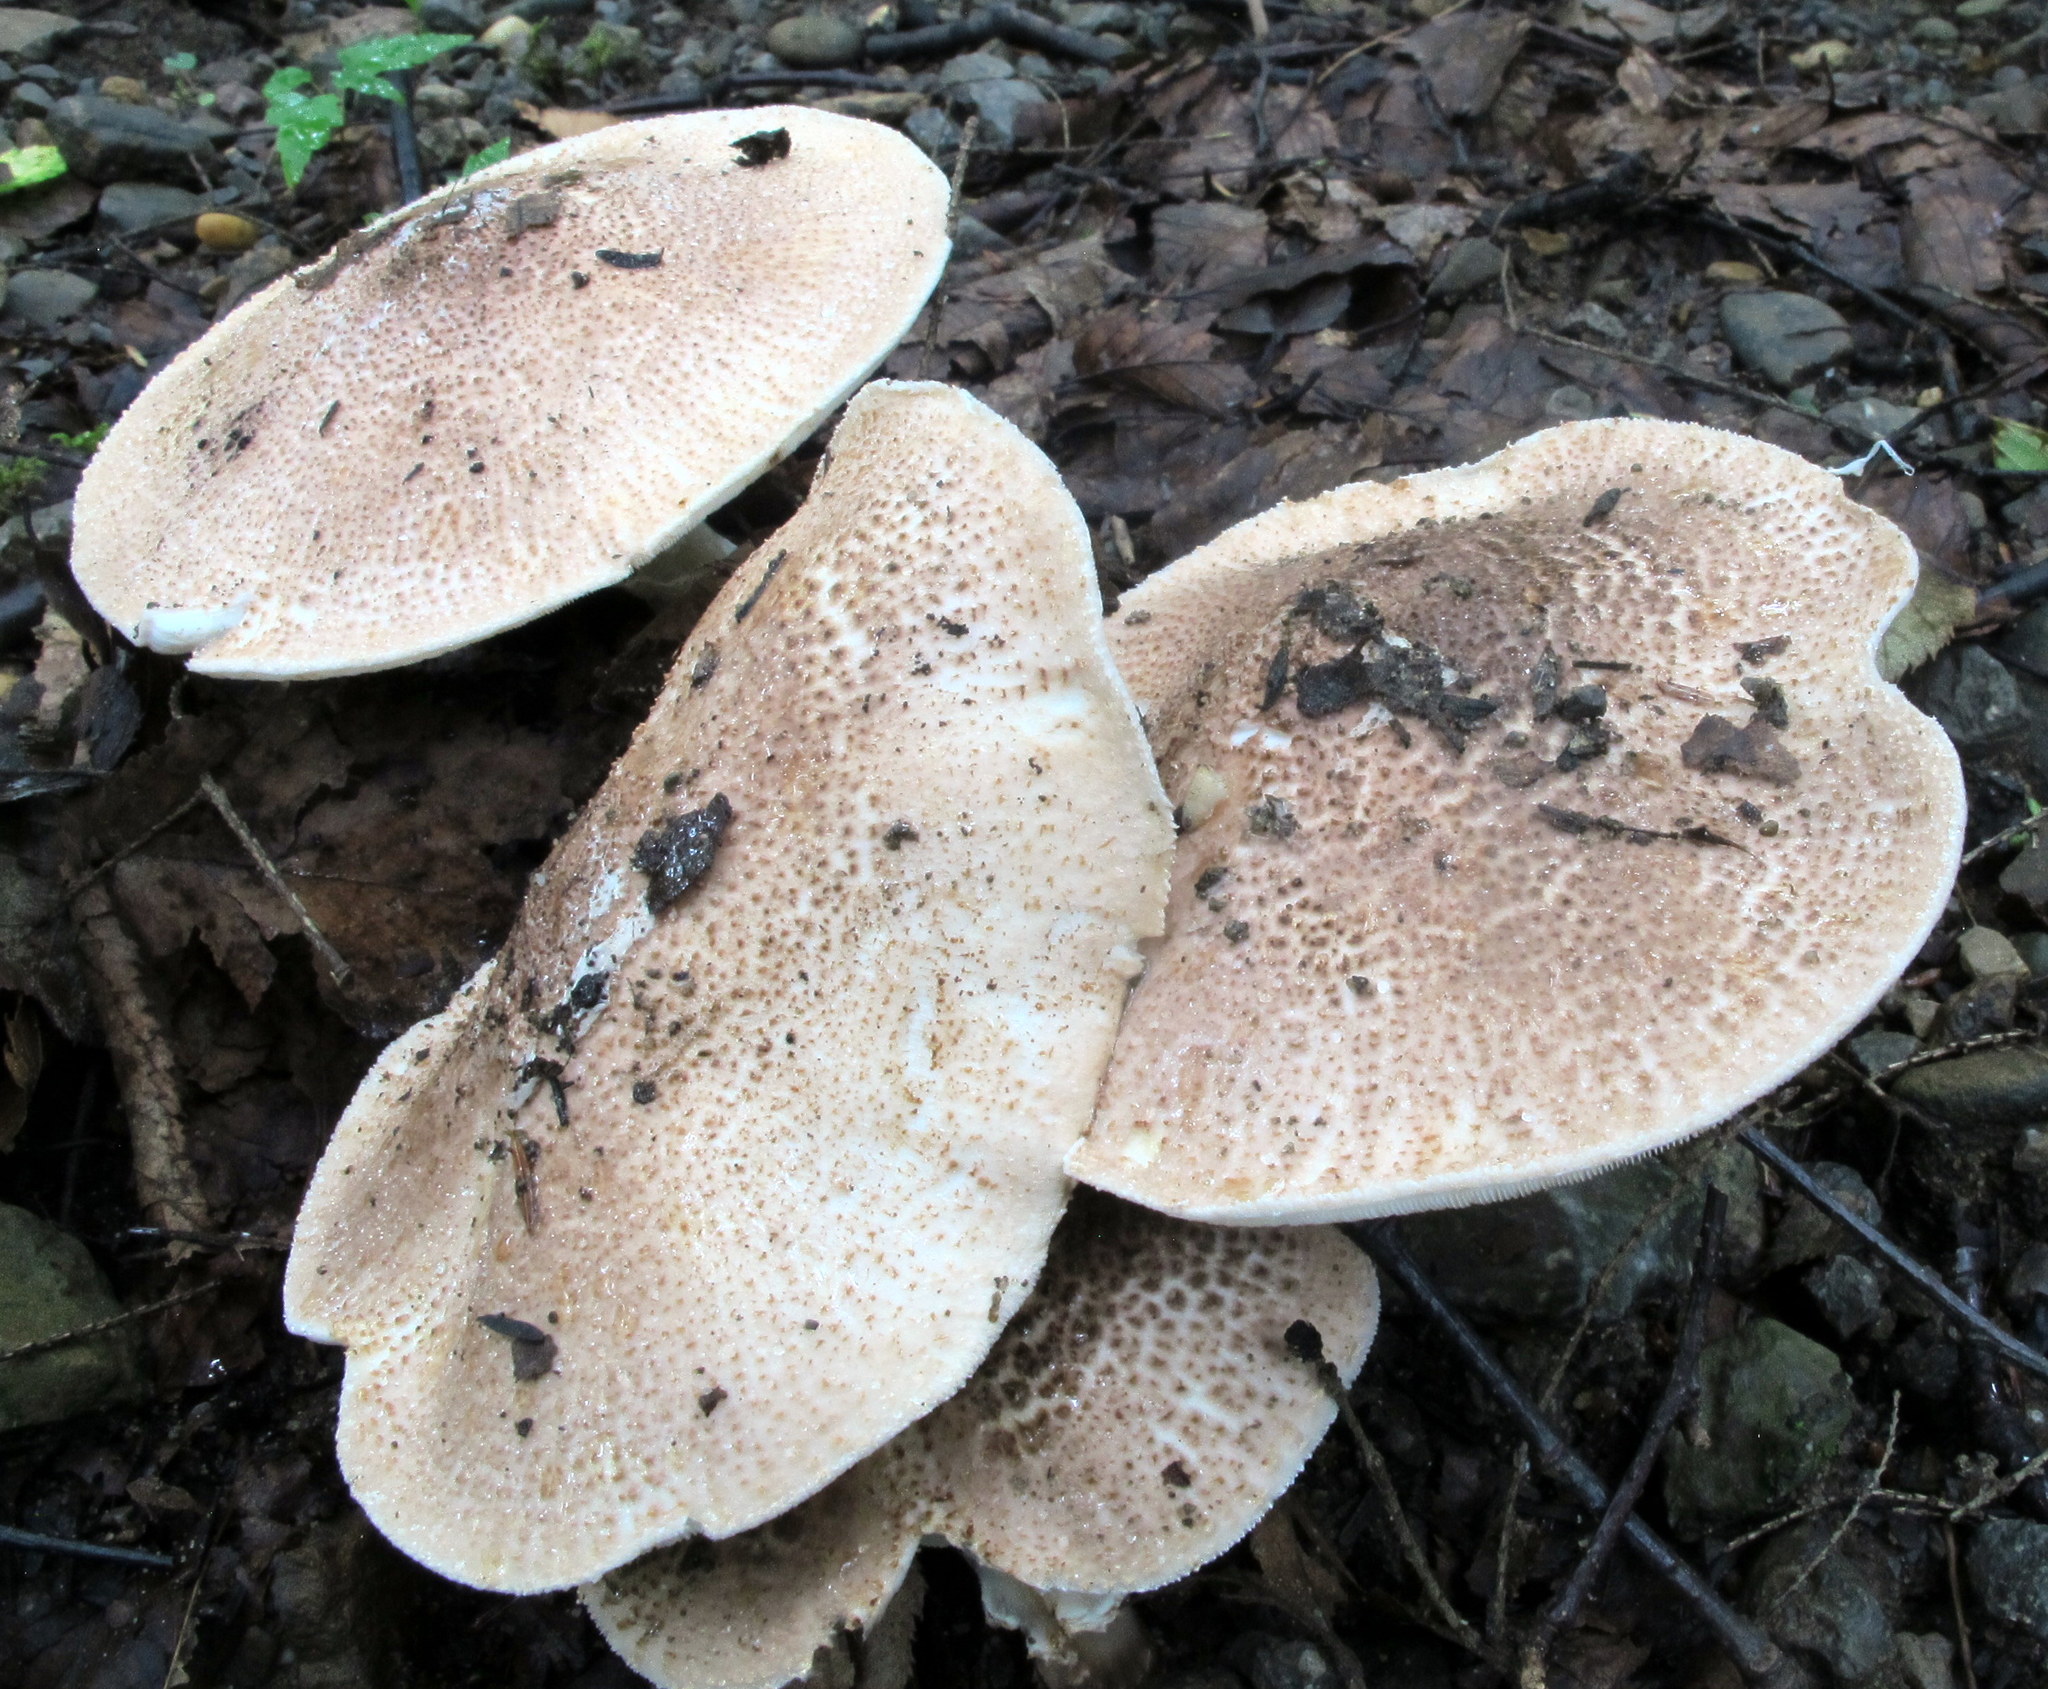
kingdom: Fungi
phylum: Basidiomycota
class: Agaricomycetes
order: Agaricales
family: Agaricaceae
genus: Echinoderma
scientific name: Echinoderma asperum
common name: Freckled dapperling
